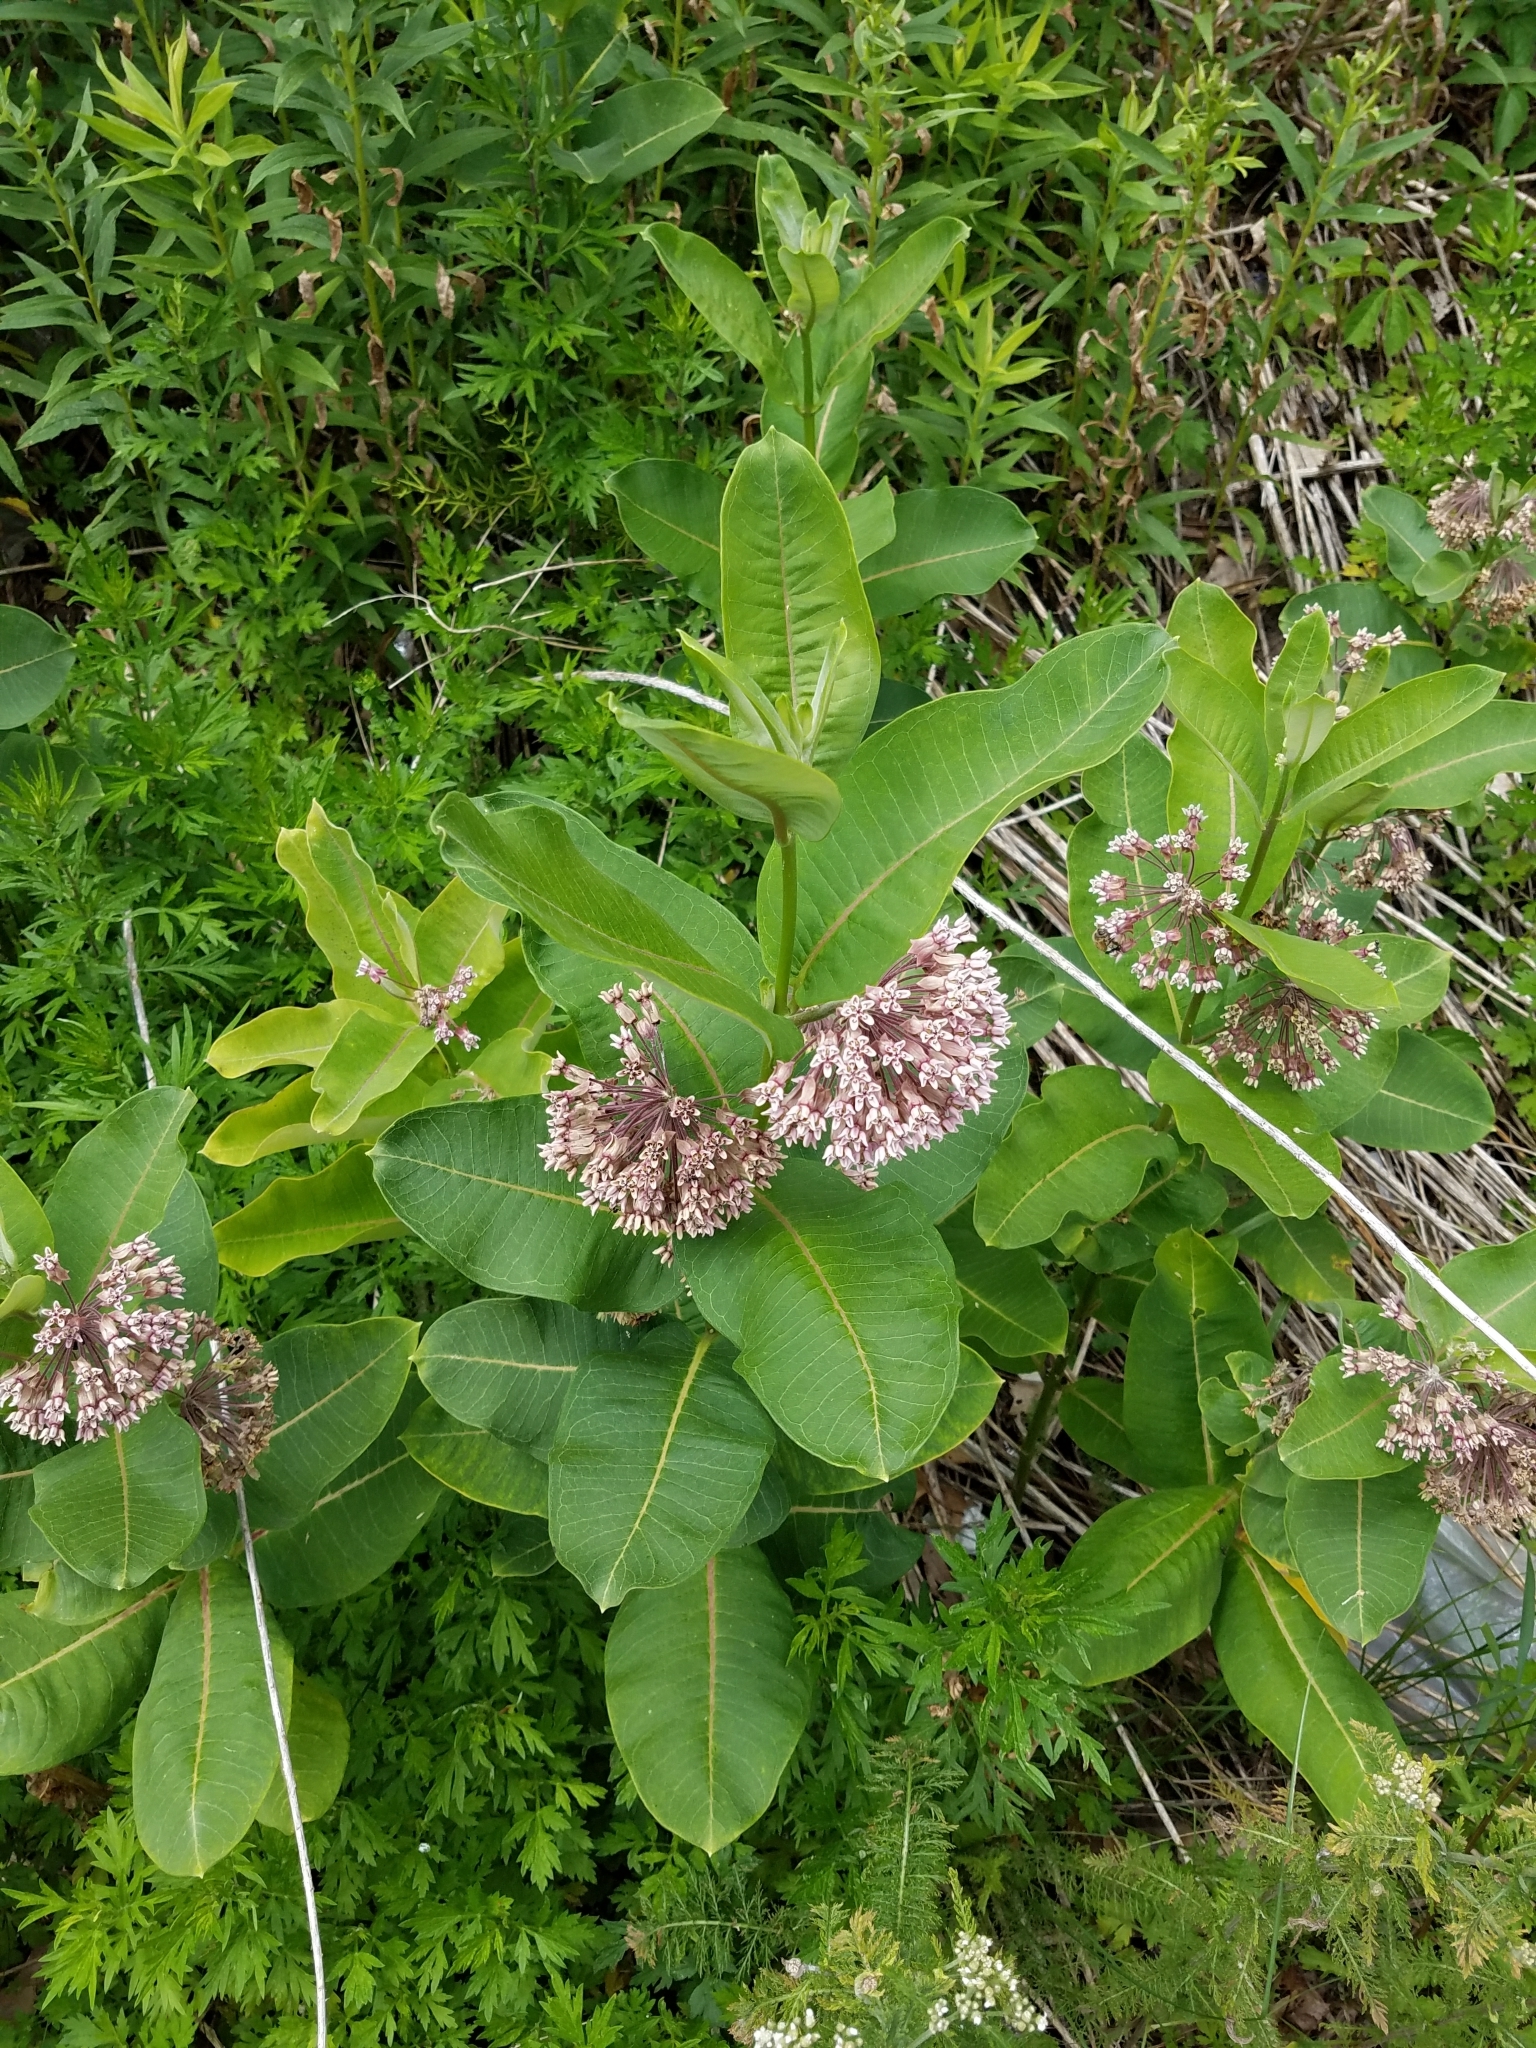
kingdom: Plantae
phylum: Tracheophyta
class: Magnoliopsida
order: Gentianales
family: Apocynaceae
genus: Asclepias
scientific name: Asclepias syriaca
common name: Common milkweed
